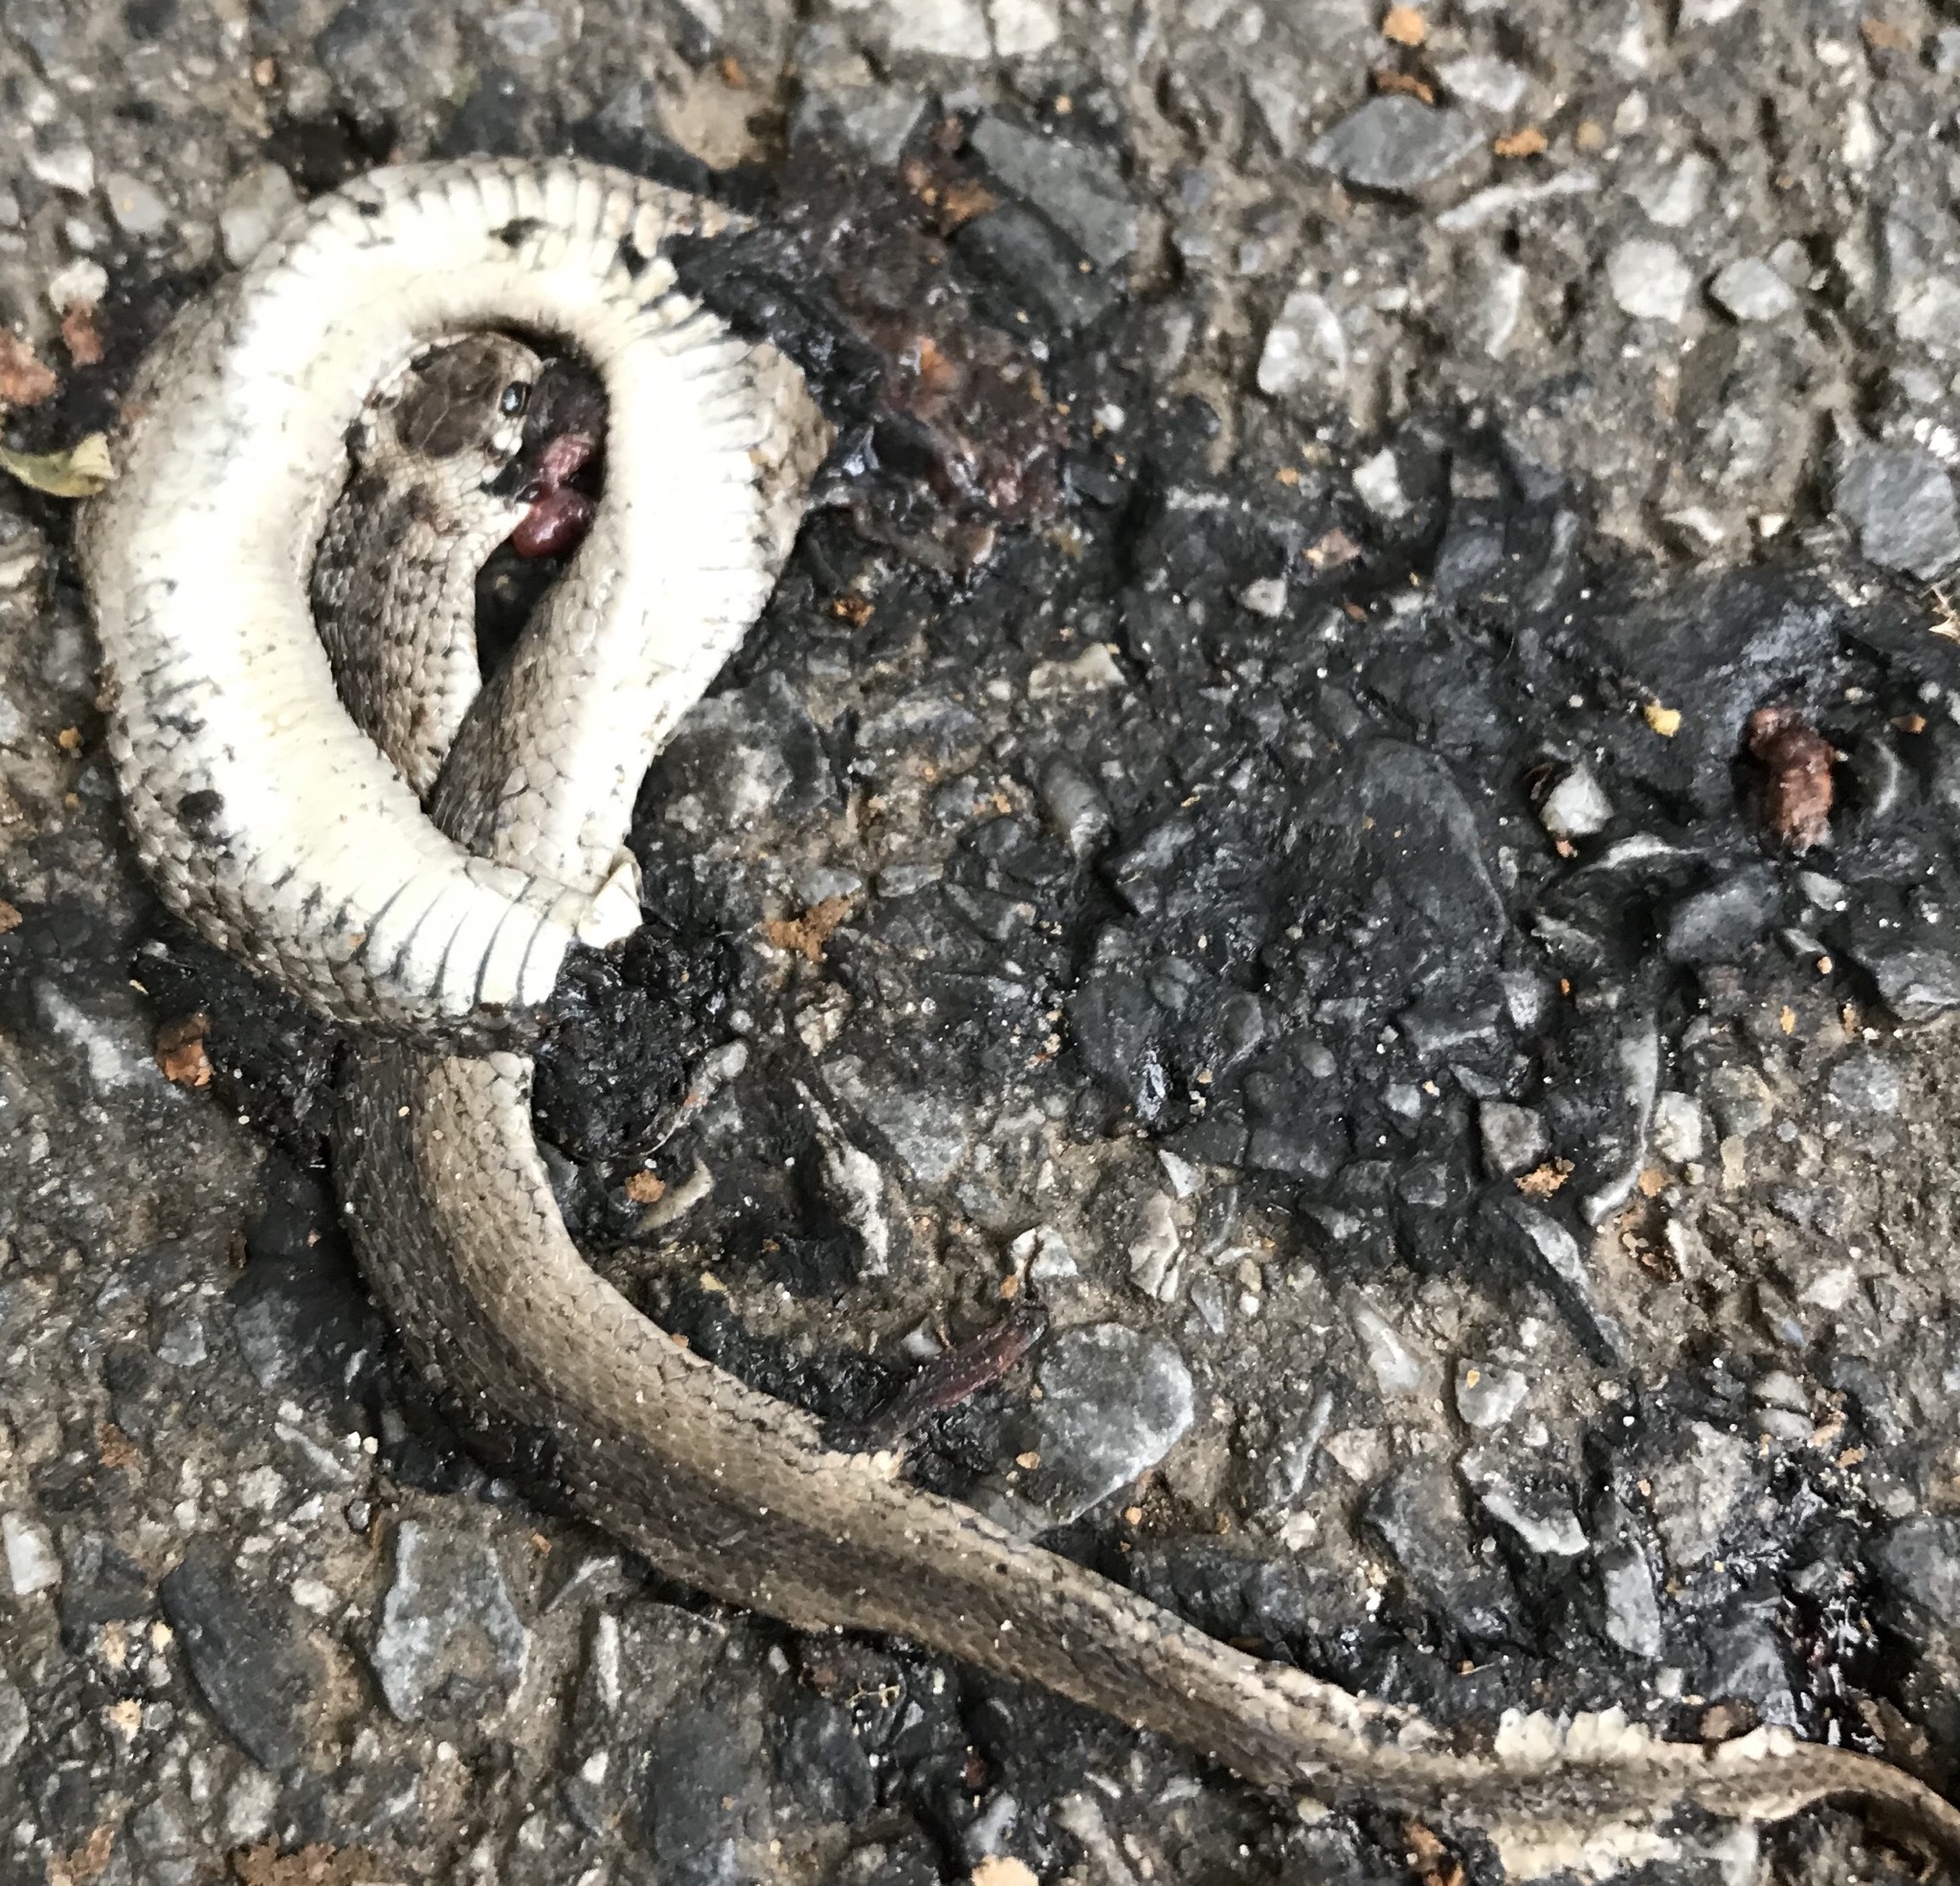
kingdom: Animalia
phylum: Chordata
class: Squamata
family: Colubridae
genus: Storeria
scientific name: Storeria dekayi
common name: (dekay’s) brown snake
